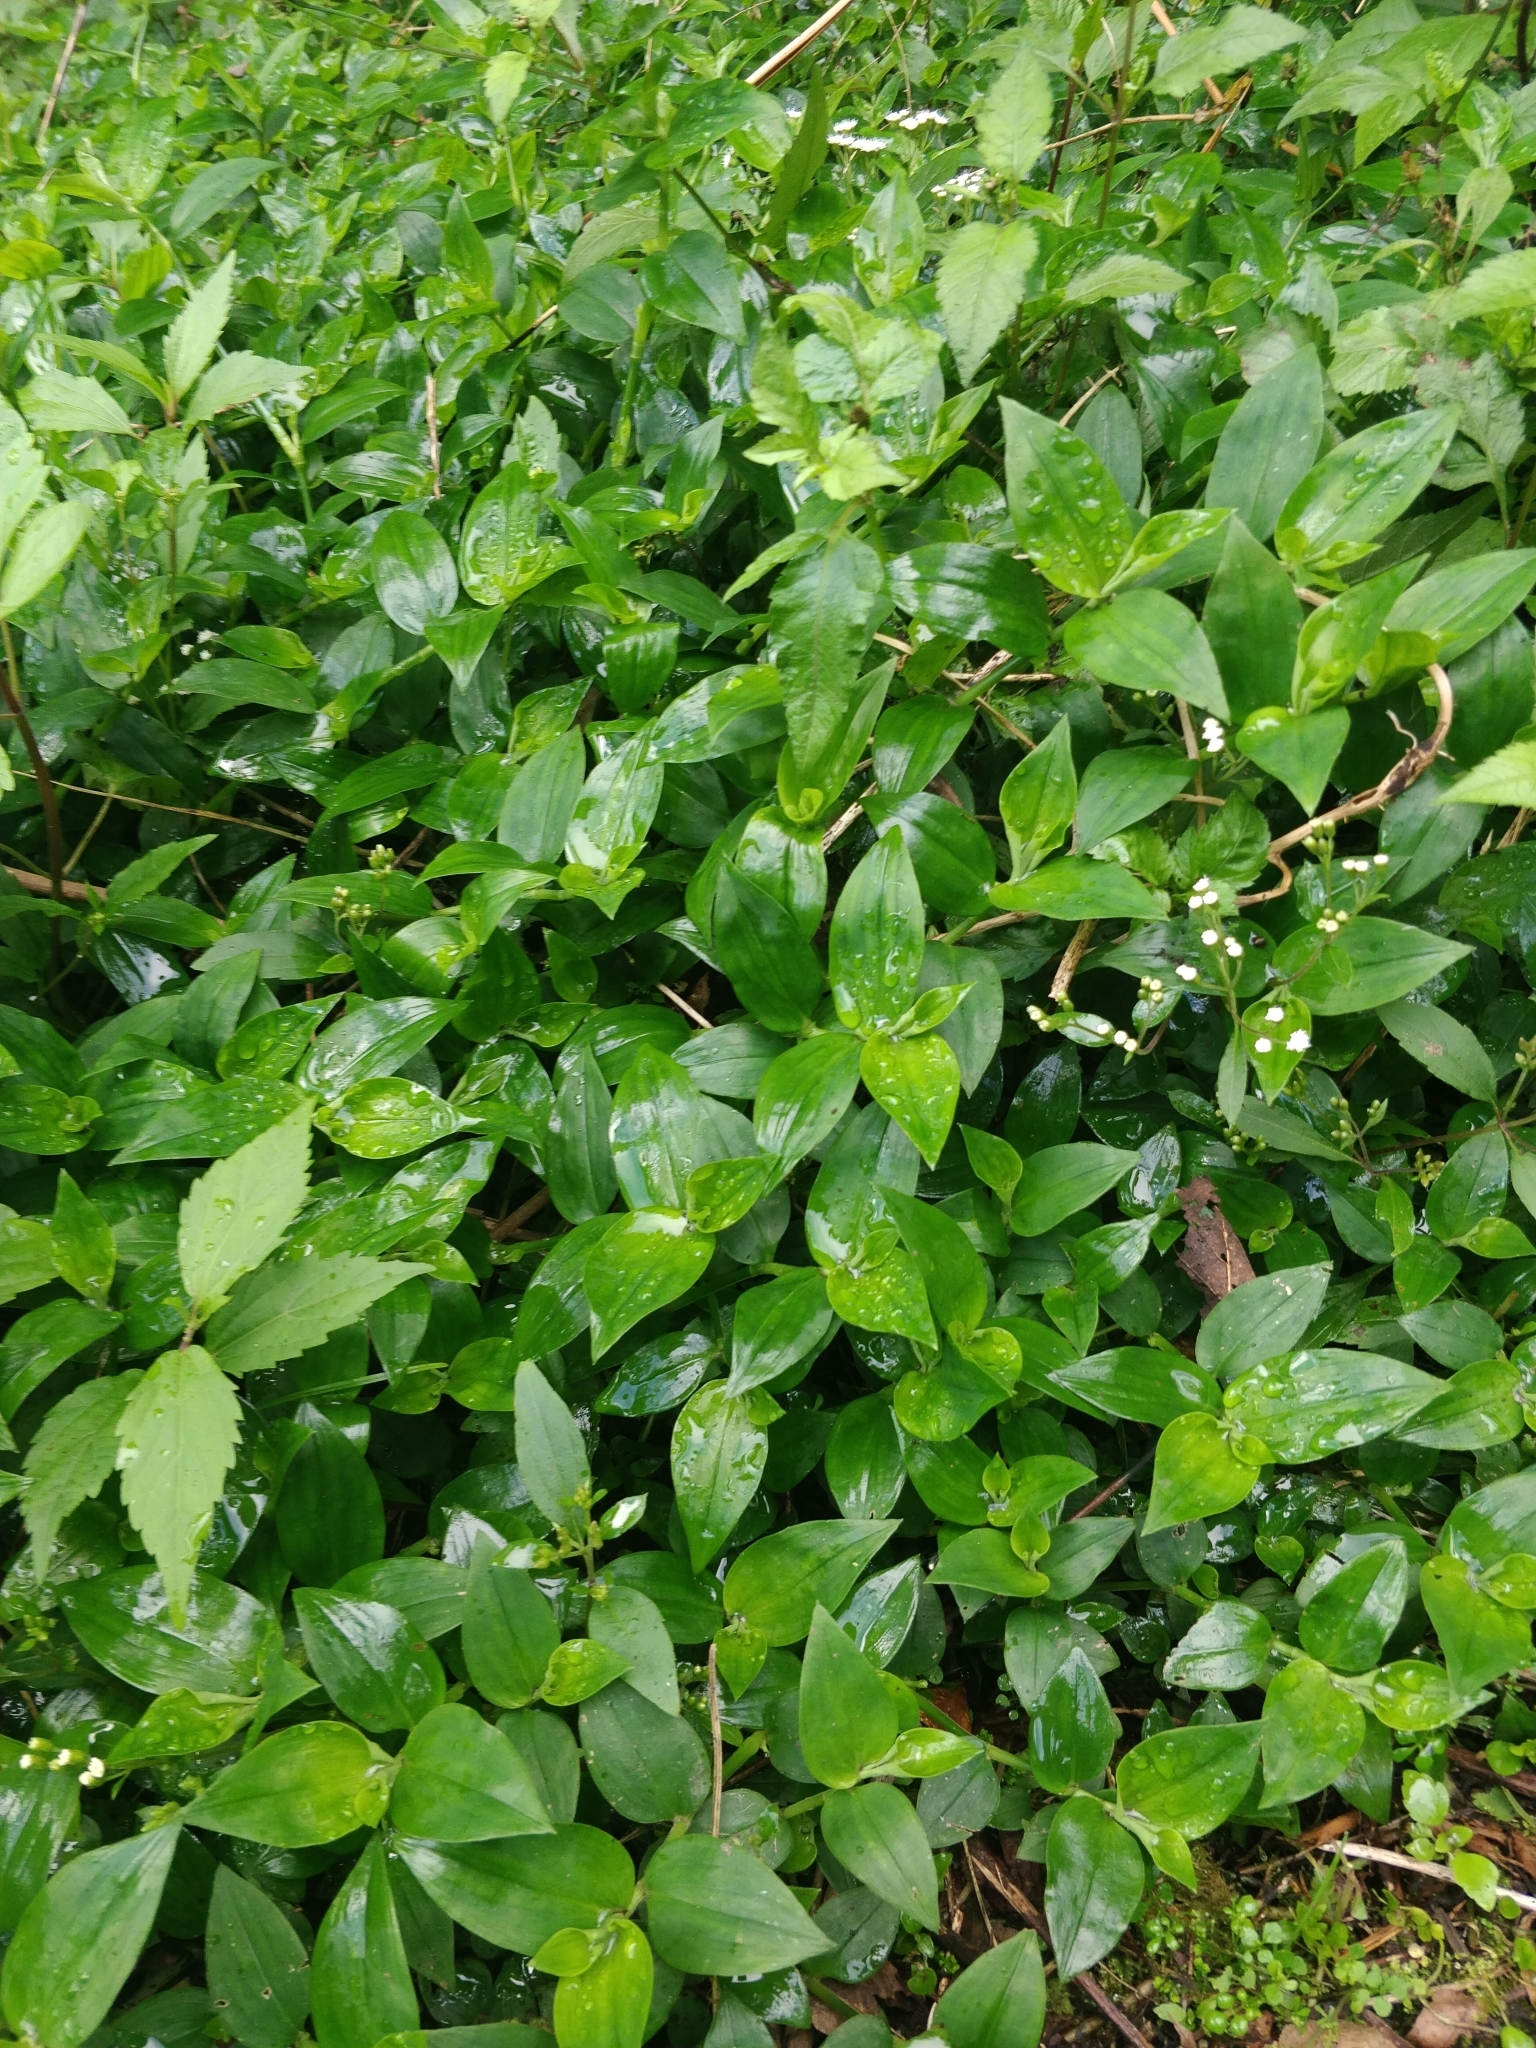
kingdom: Plantae
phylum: Tracheophyta
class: Liliopsida
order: Commelinales
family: Commelinaceae
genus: Tradescantia
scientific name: Tradescantia fluminensis
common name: Wandering-jew
